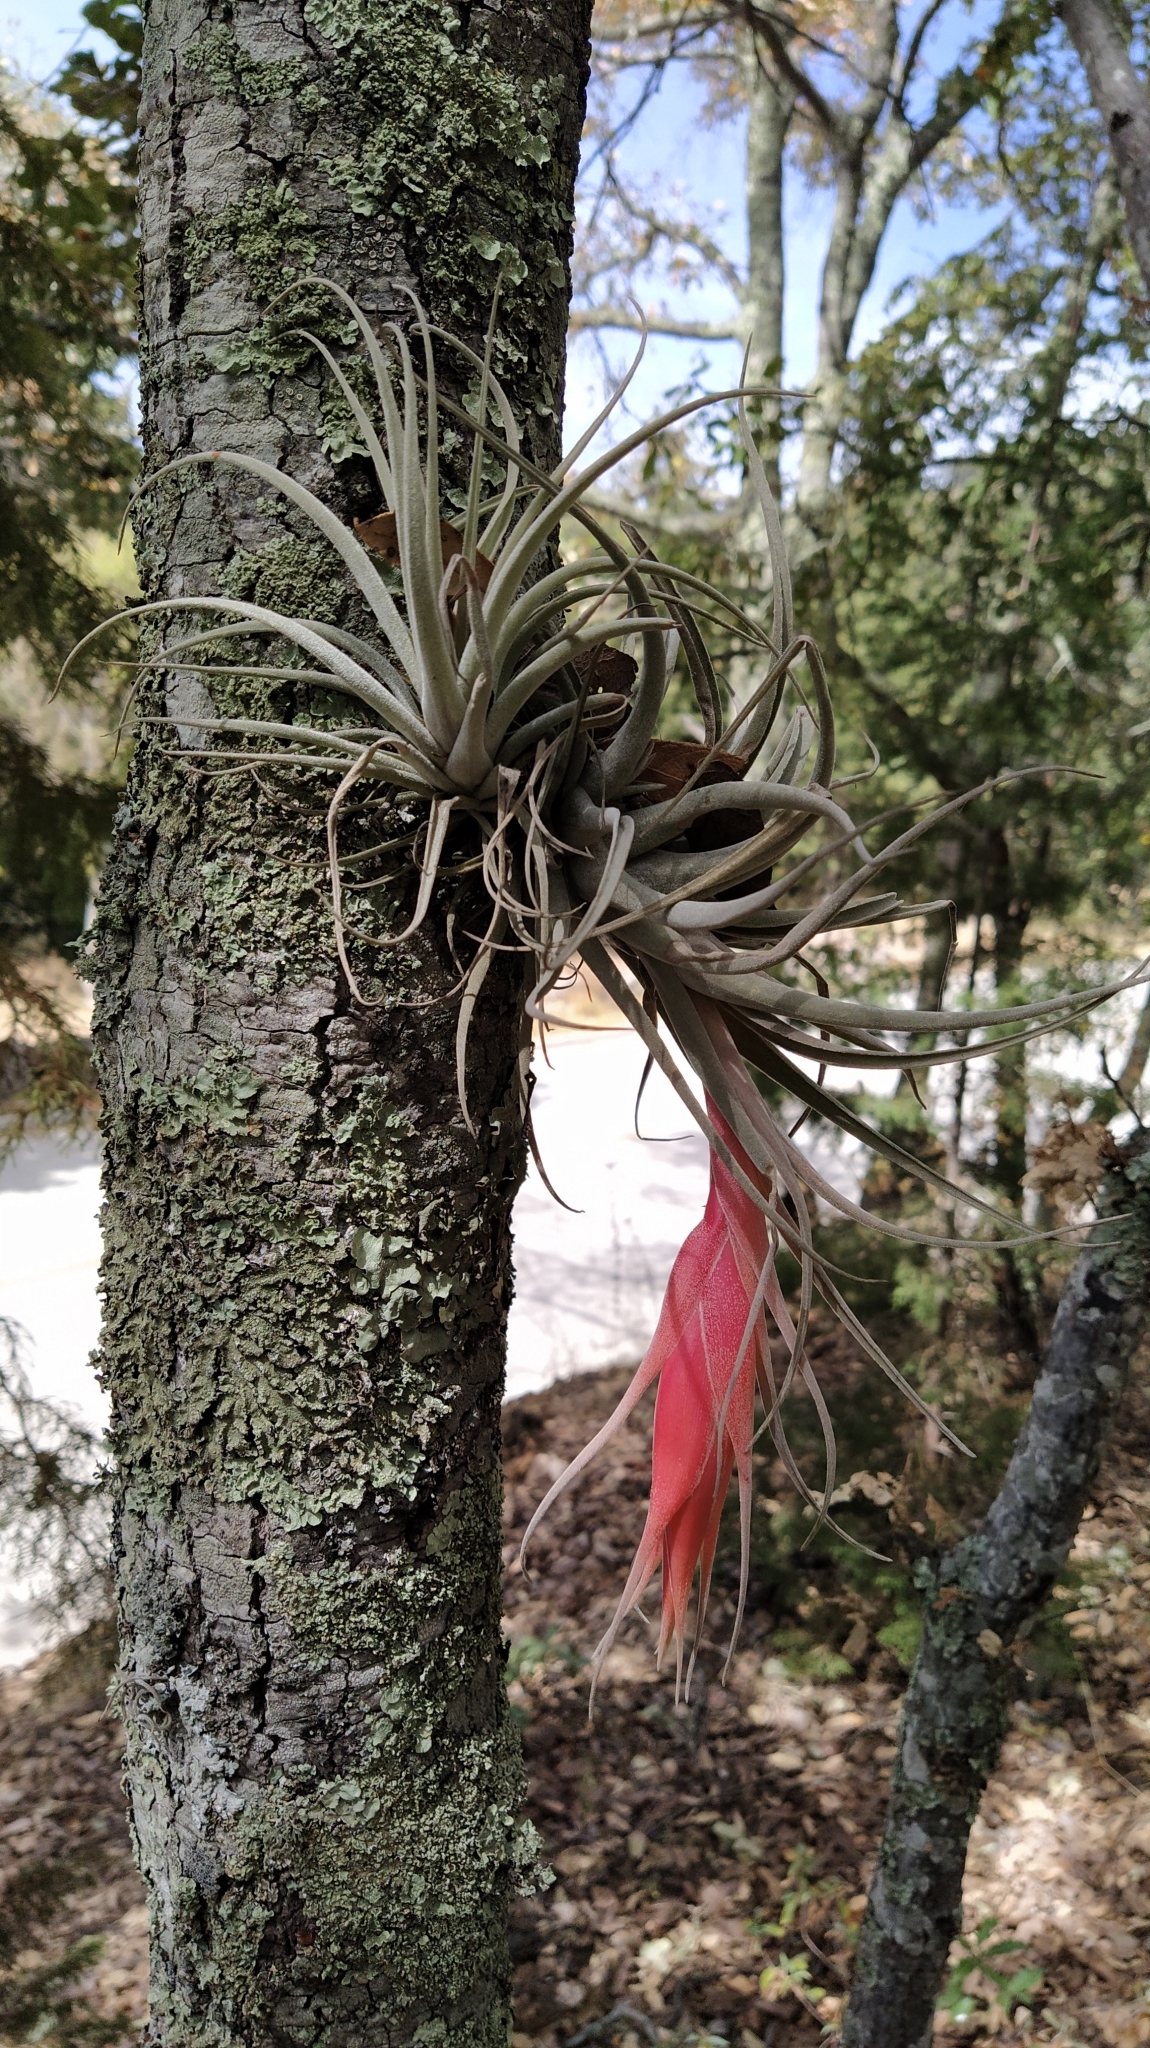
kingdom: Plantae
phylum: Tracheophyta
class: Liliopsida
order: Poales
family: Bromeliaceae
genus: Tillandsia
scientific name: Tillandsia erubescens
